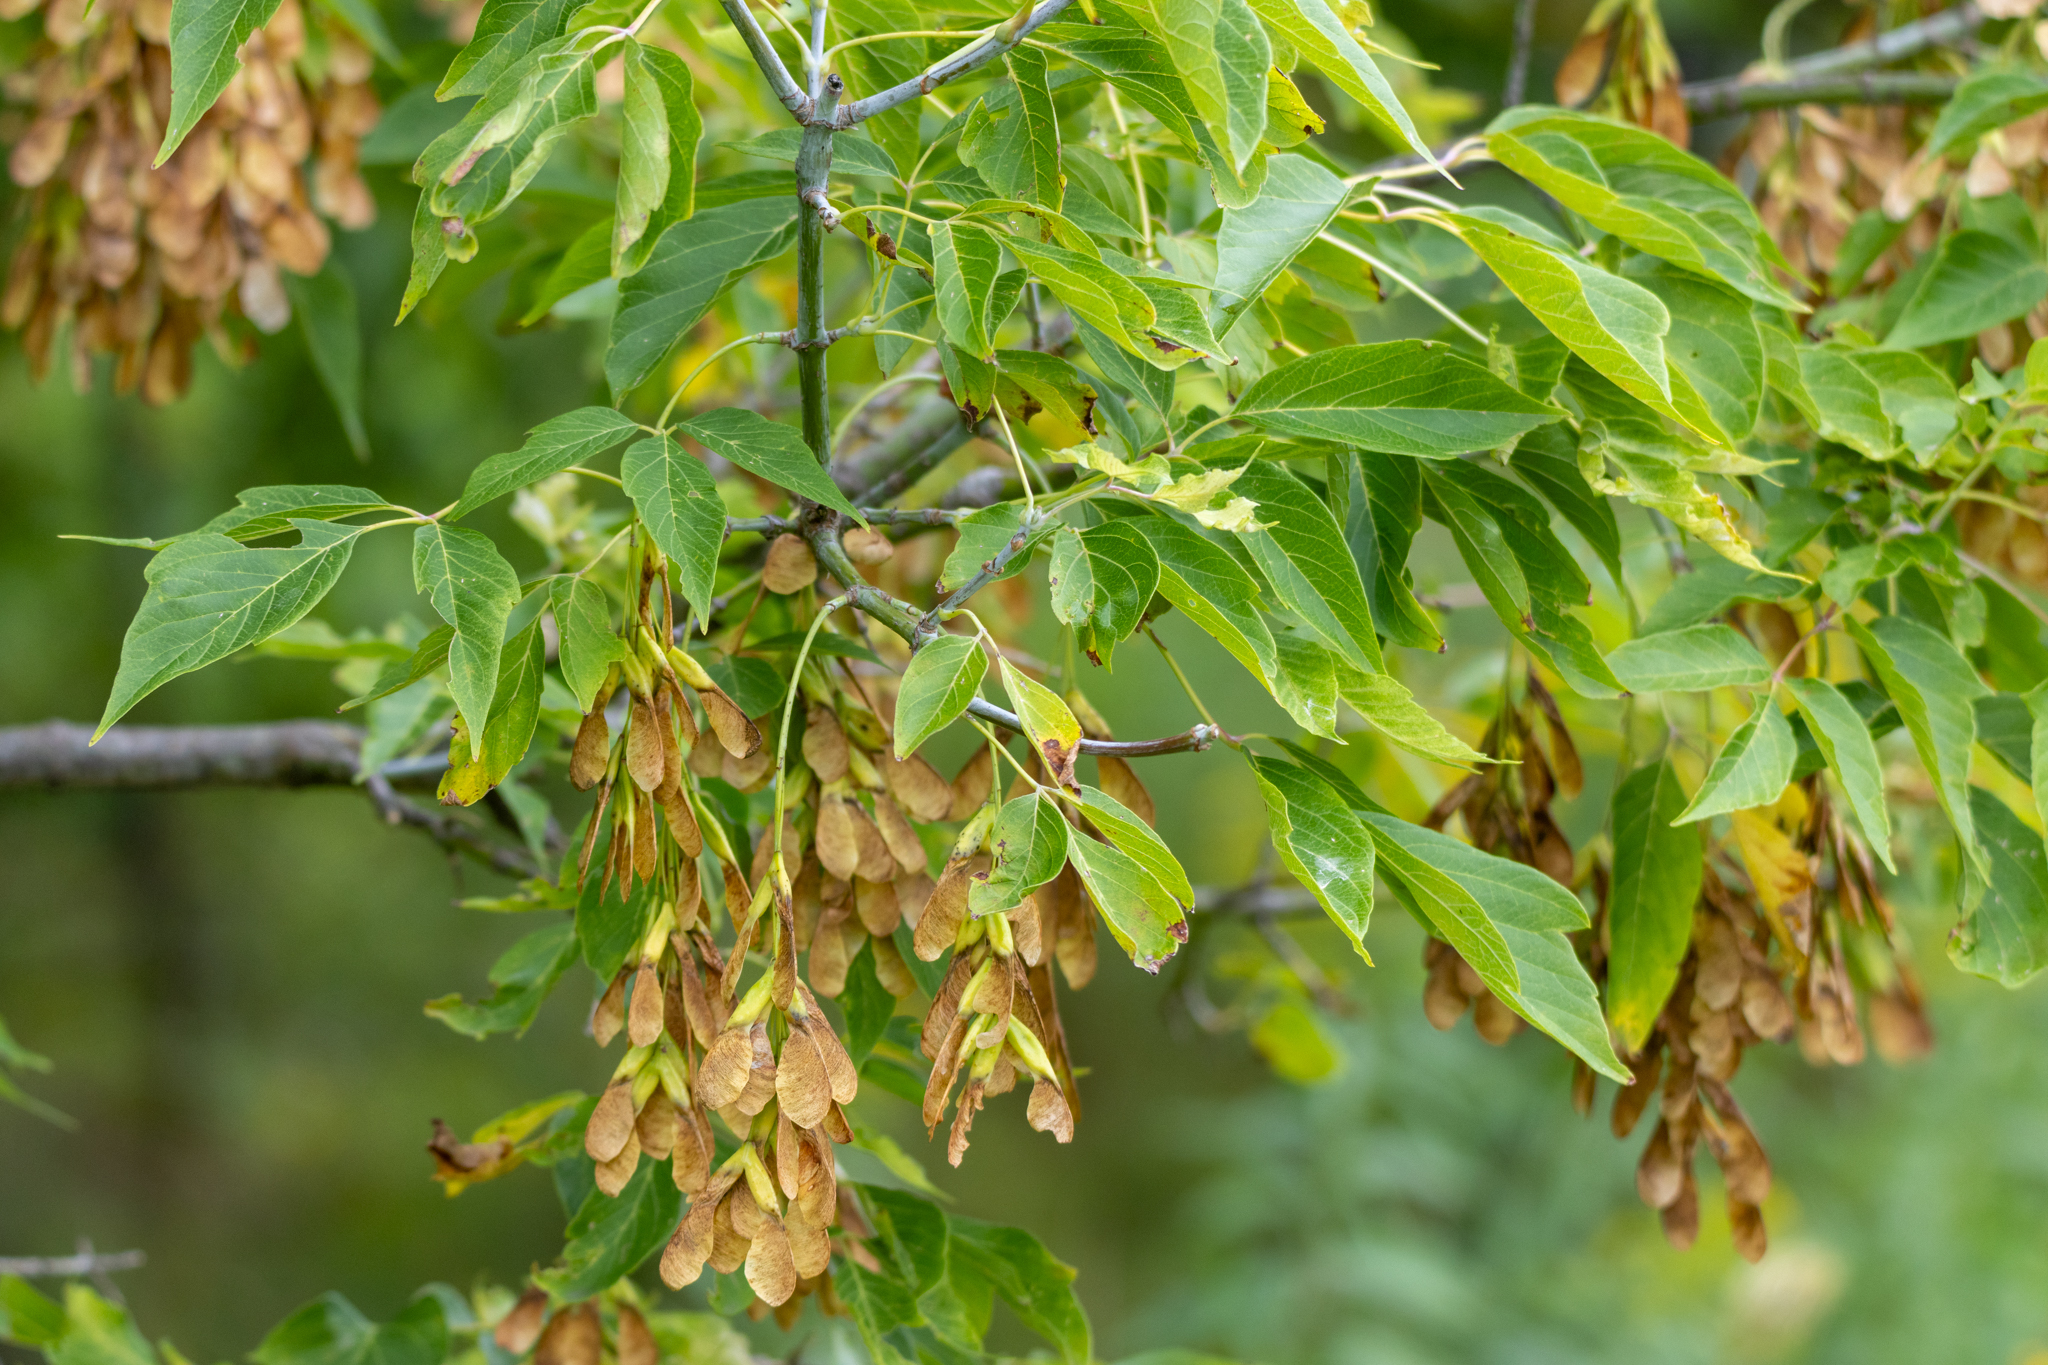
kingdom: Plantae
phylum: Tracheophyta
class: Magnoliopsida
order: Sapindales
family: Sapindaceae
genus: Acer
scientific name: Acer negundo
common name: Ashleaf maple
